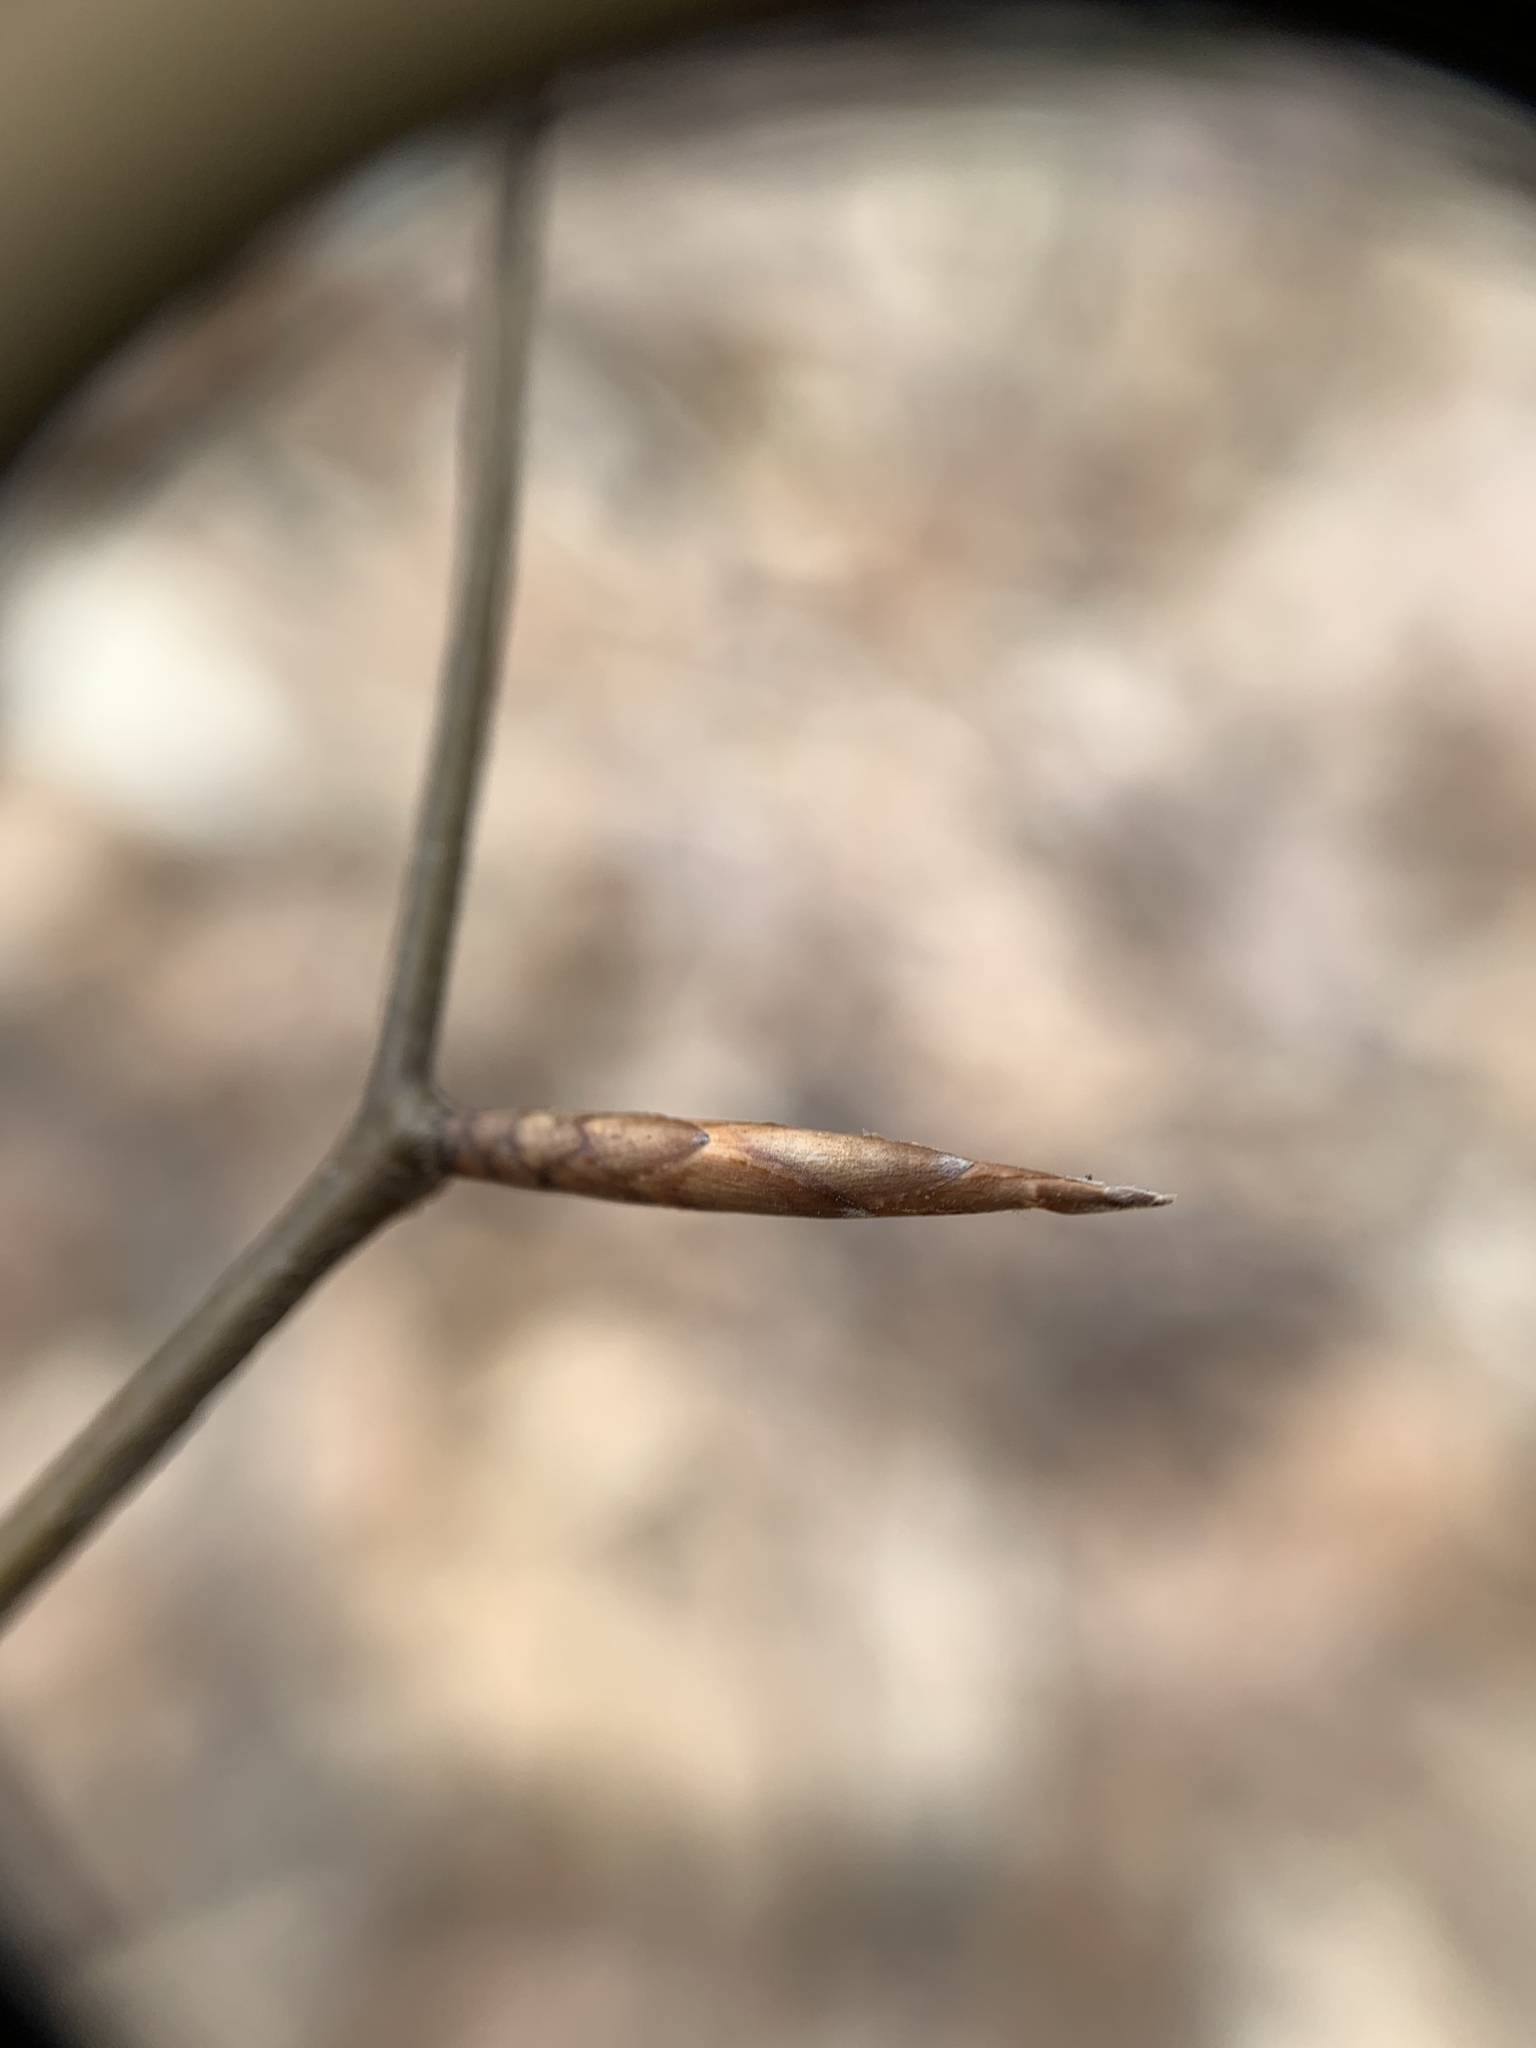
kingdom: Plantae
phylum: Tracheophyta
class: Magnoliopsida
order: Fagales
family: Fagaceae
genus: Fagus
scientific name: Fagus grandifolia
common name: American beech
